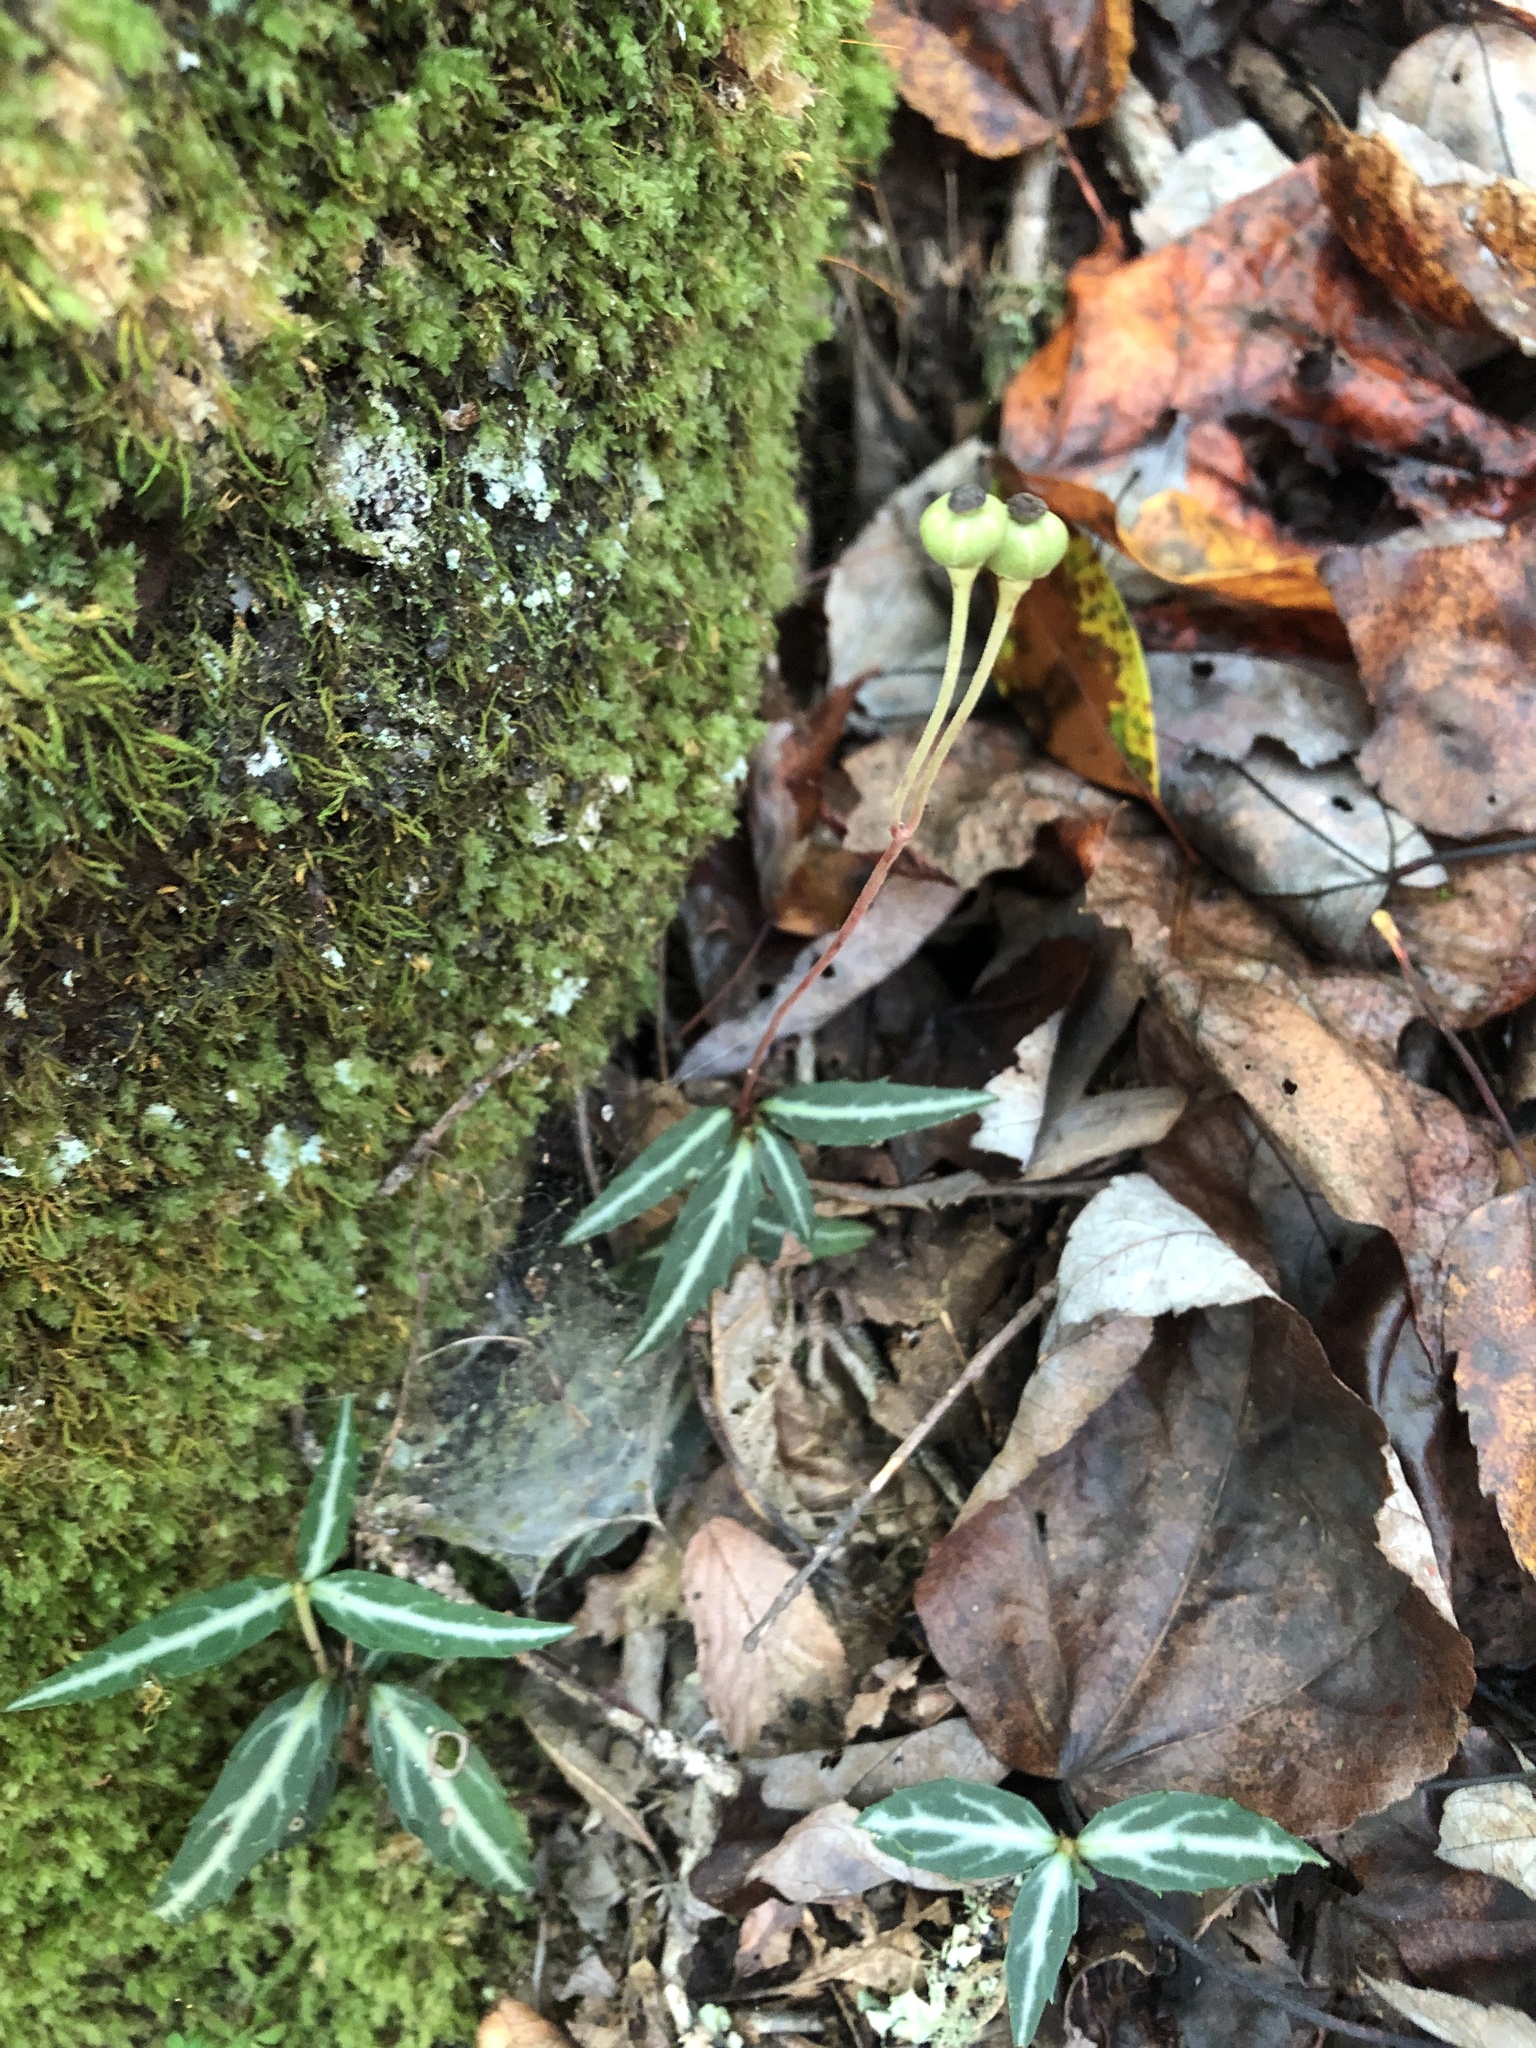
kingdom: Plantae
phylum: Tracheophyta
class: Magnoliopsida
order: Ericales
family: Ericaceae
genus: Chimaphila
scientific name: Chimaphila maculata
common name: Spotted pipsissewa
